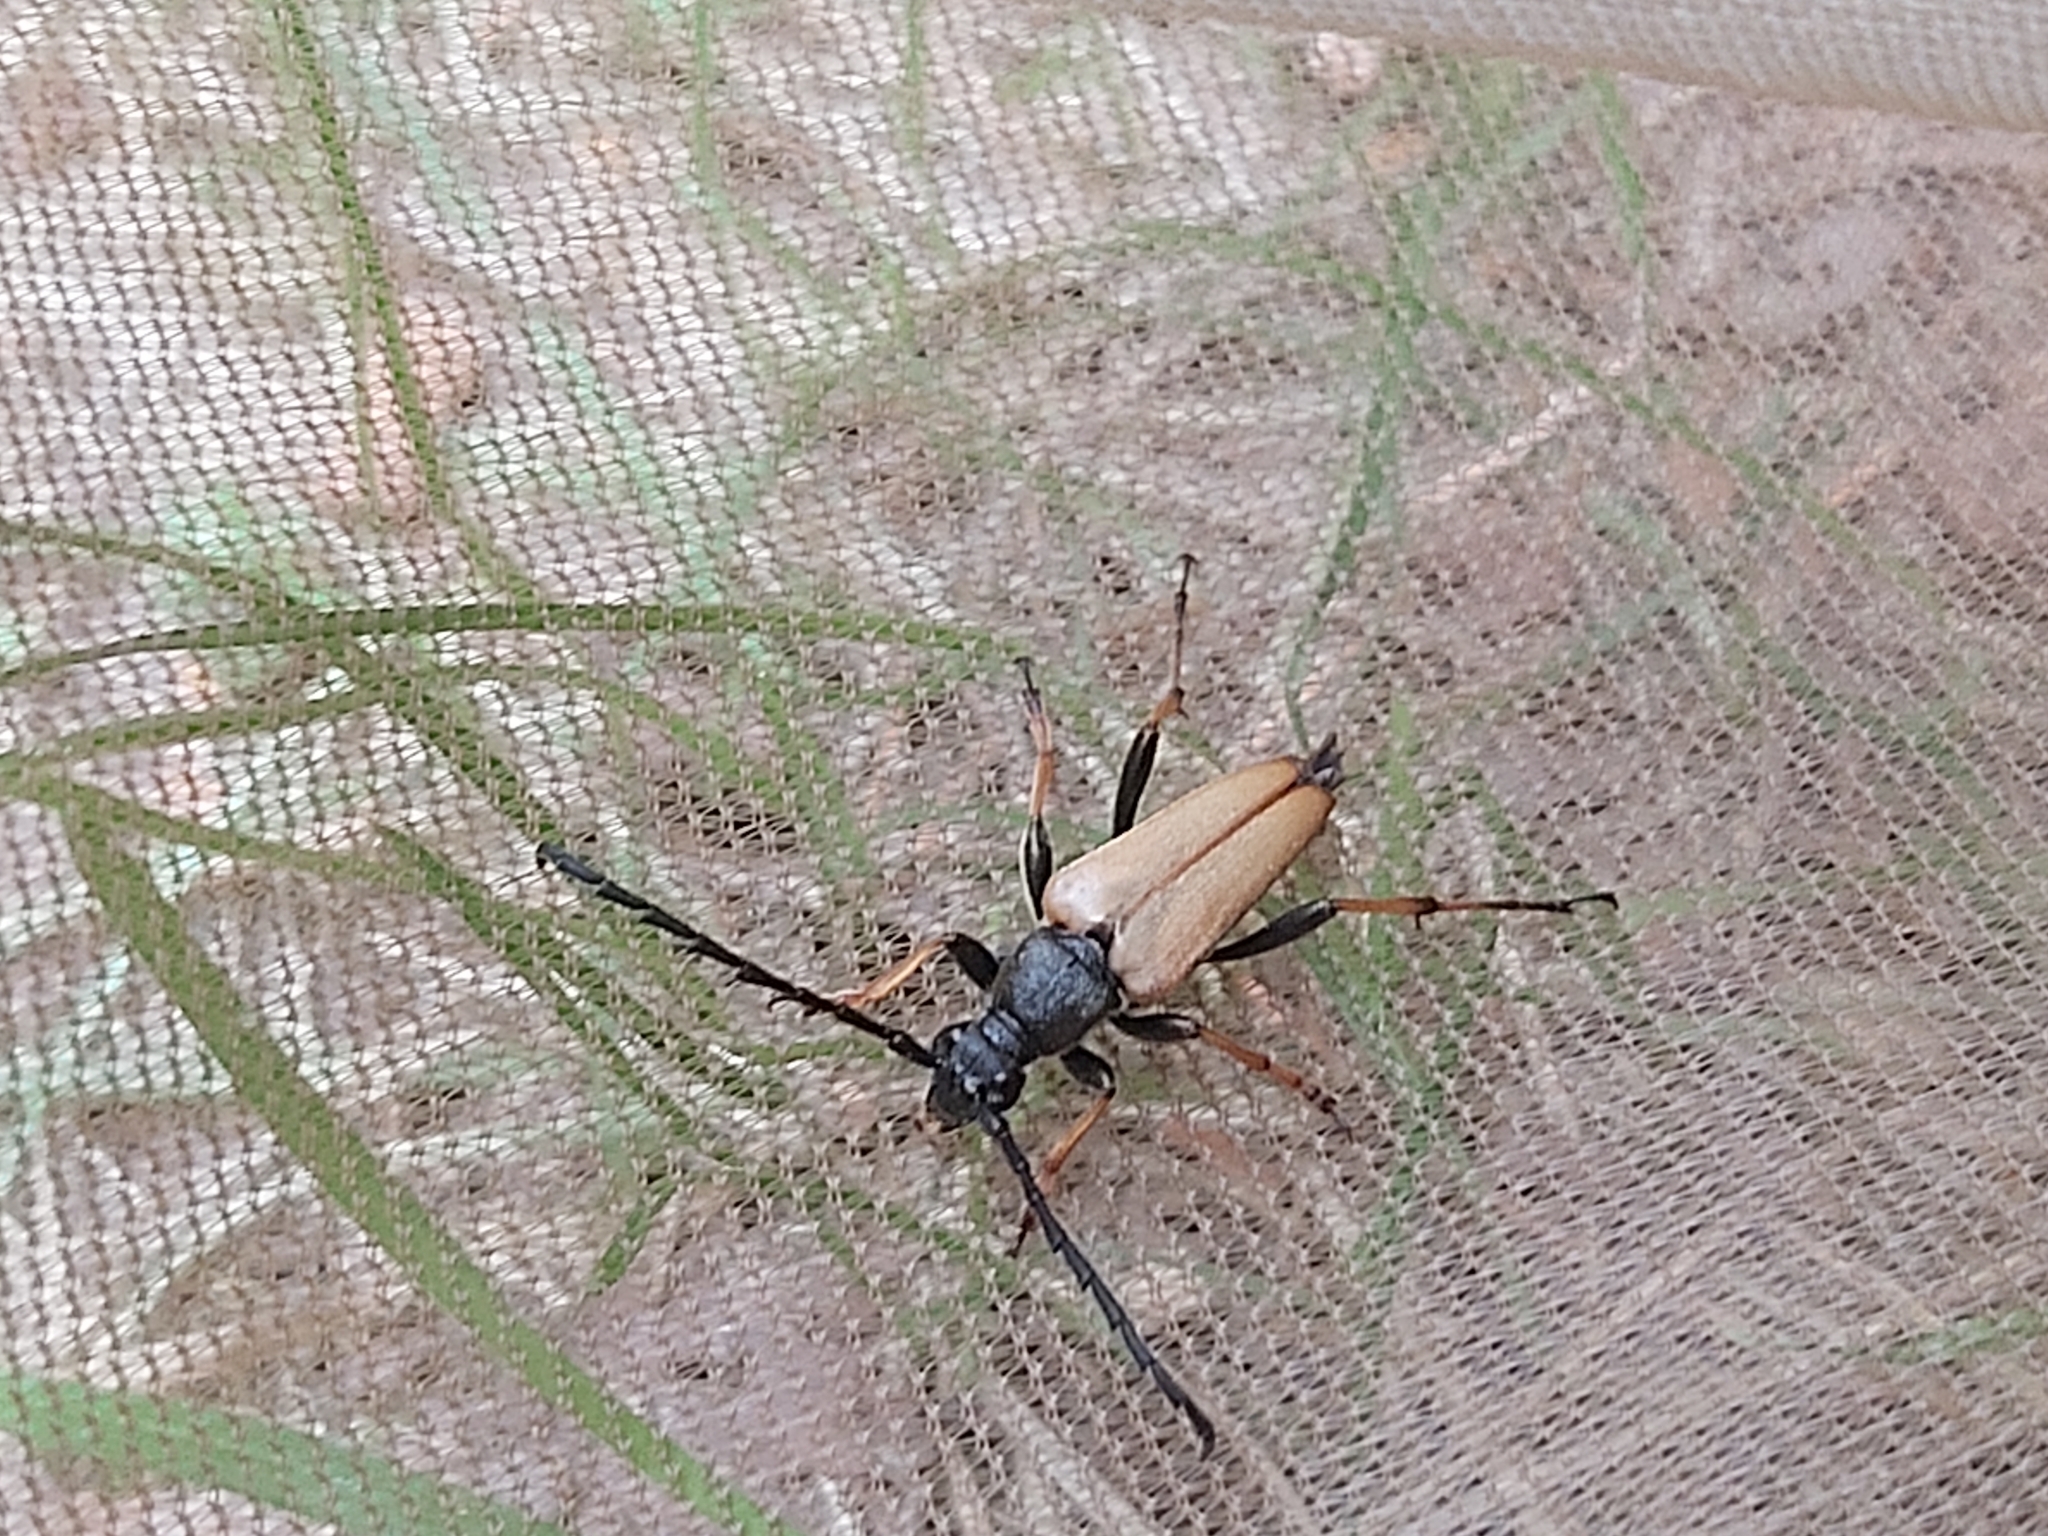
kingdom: Animalia
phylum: Arthropoda
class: Insecta
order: Coleoptera
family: Cerambycidae
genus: Stictoleptura
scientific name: Stictoleptura rubra
